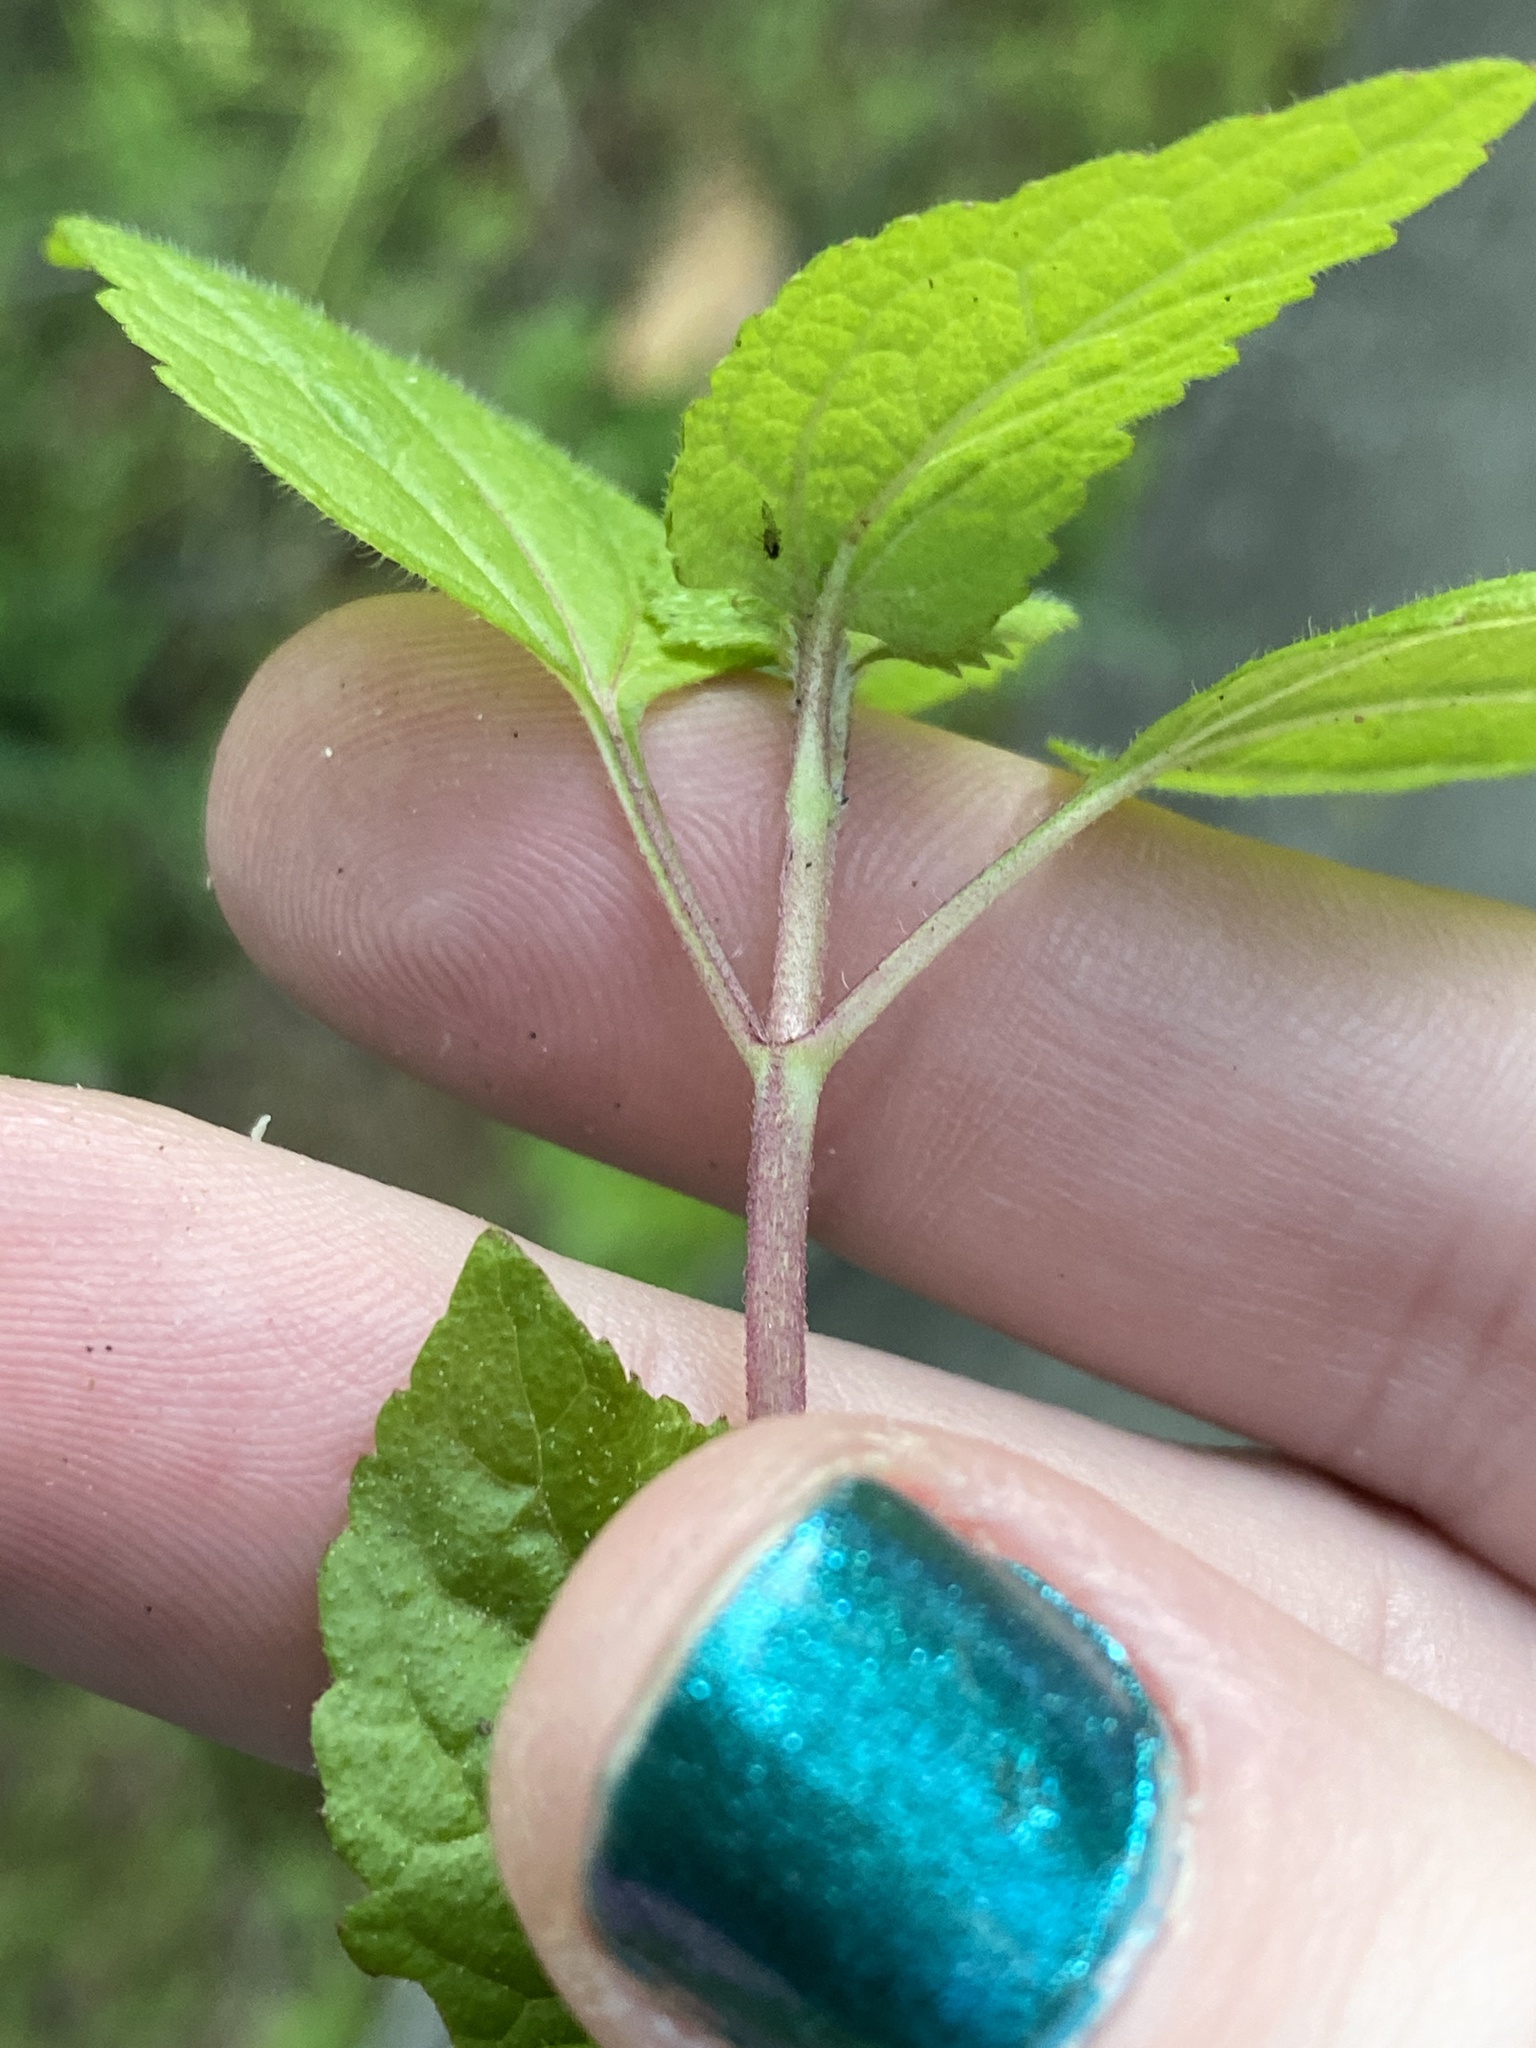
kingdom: Plantae
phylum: Tracheophyta
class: Magnoliopsida
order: Asterales
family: Asteraceae
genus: Conoclinium
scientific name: Conoclinium coelestinum
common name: Blue mistflower
